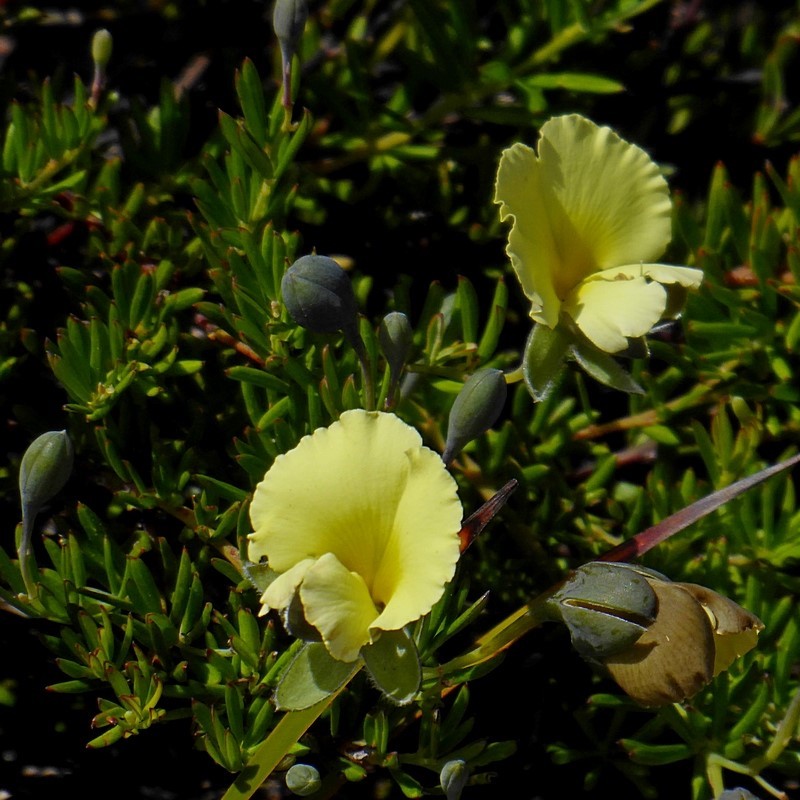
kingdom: Plantae
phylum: Tracheophyta
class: Magnoliopsida
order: Fabales
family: Fabaceae
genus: Gompholobium
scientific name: Gompholobium huegelii
